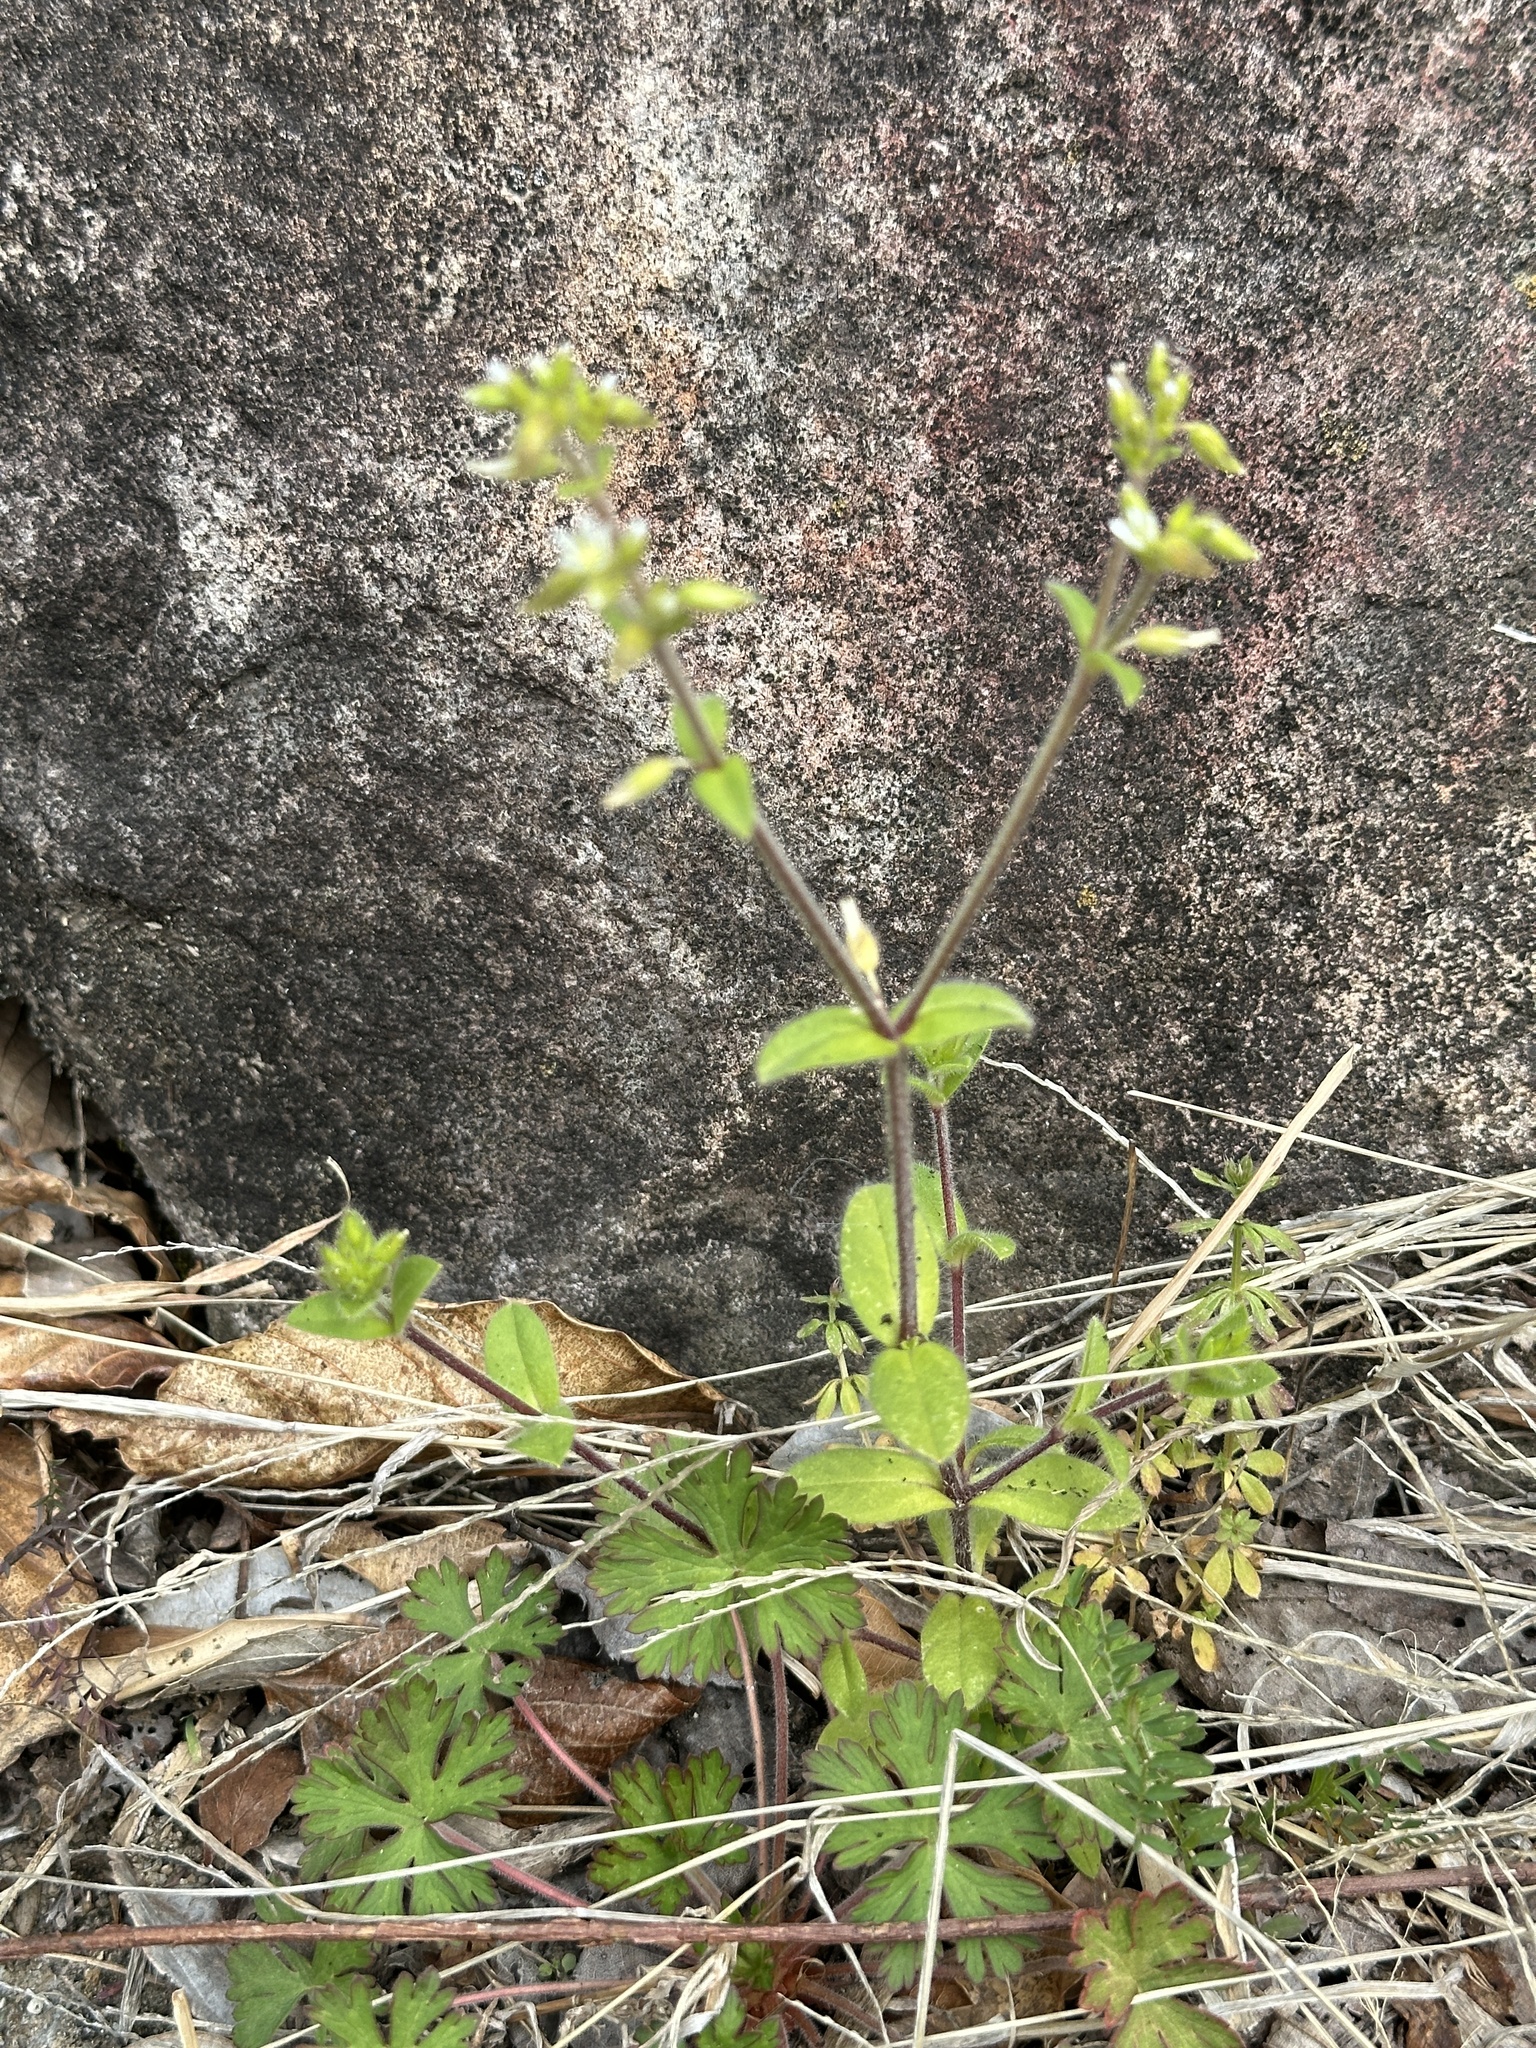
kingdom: Plantae
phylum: Tracheophyta
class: Magnoliopsida
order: Caryophyllales
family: Caryophyllaceae
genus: Cerastium
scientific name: Cerastium glomeratum
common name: Sticky chickweed
